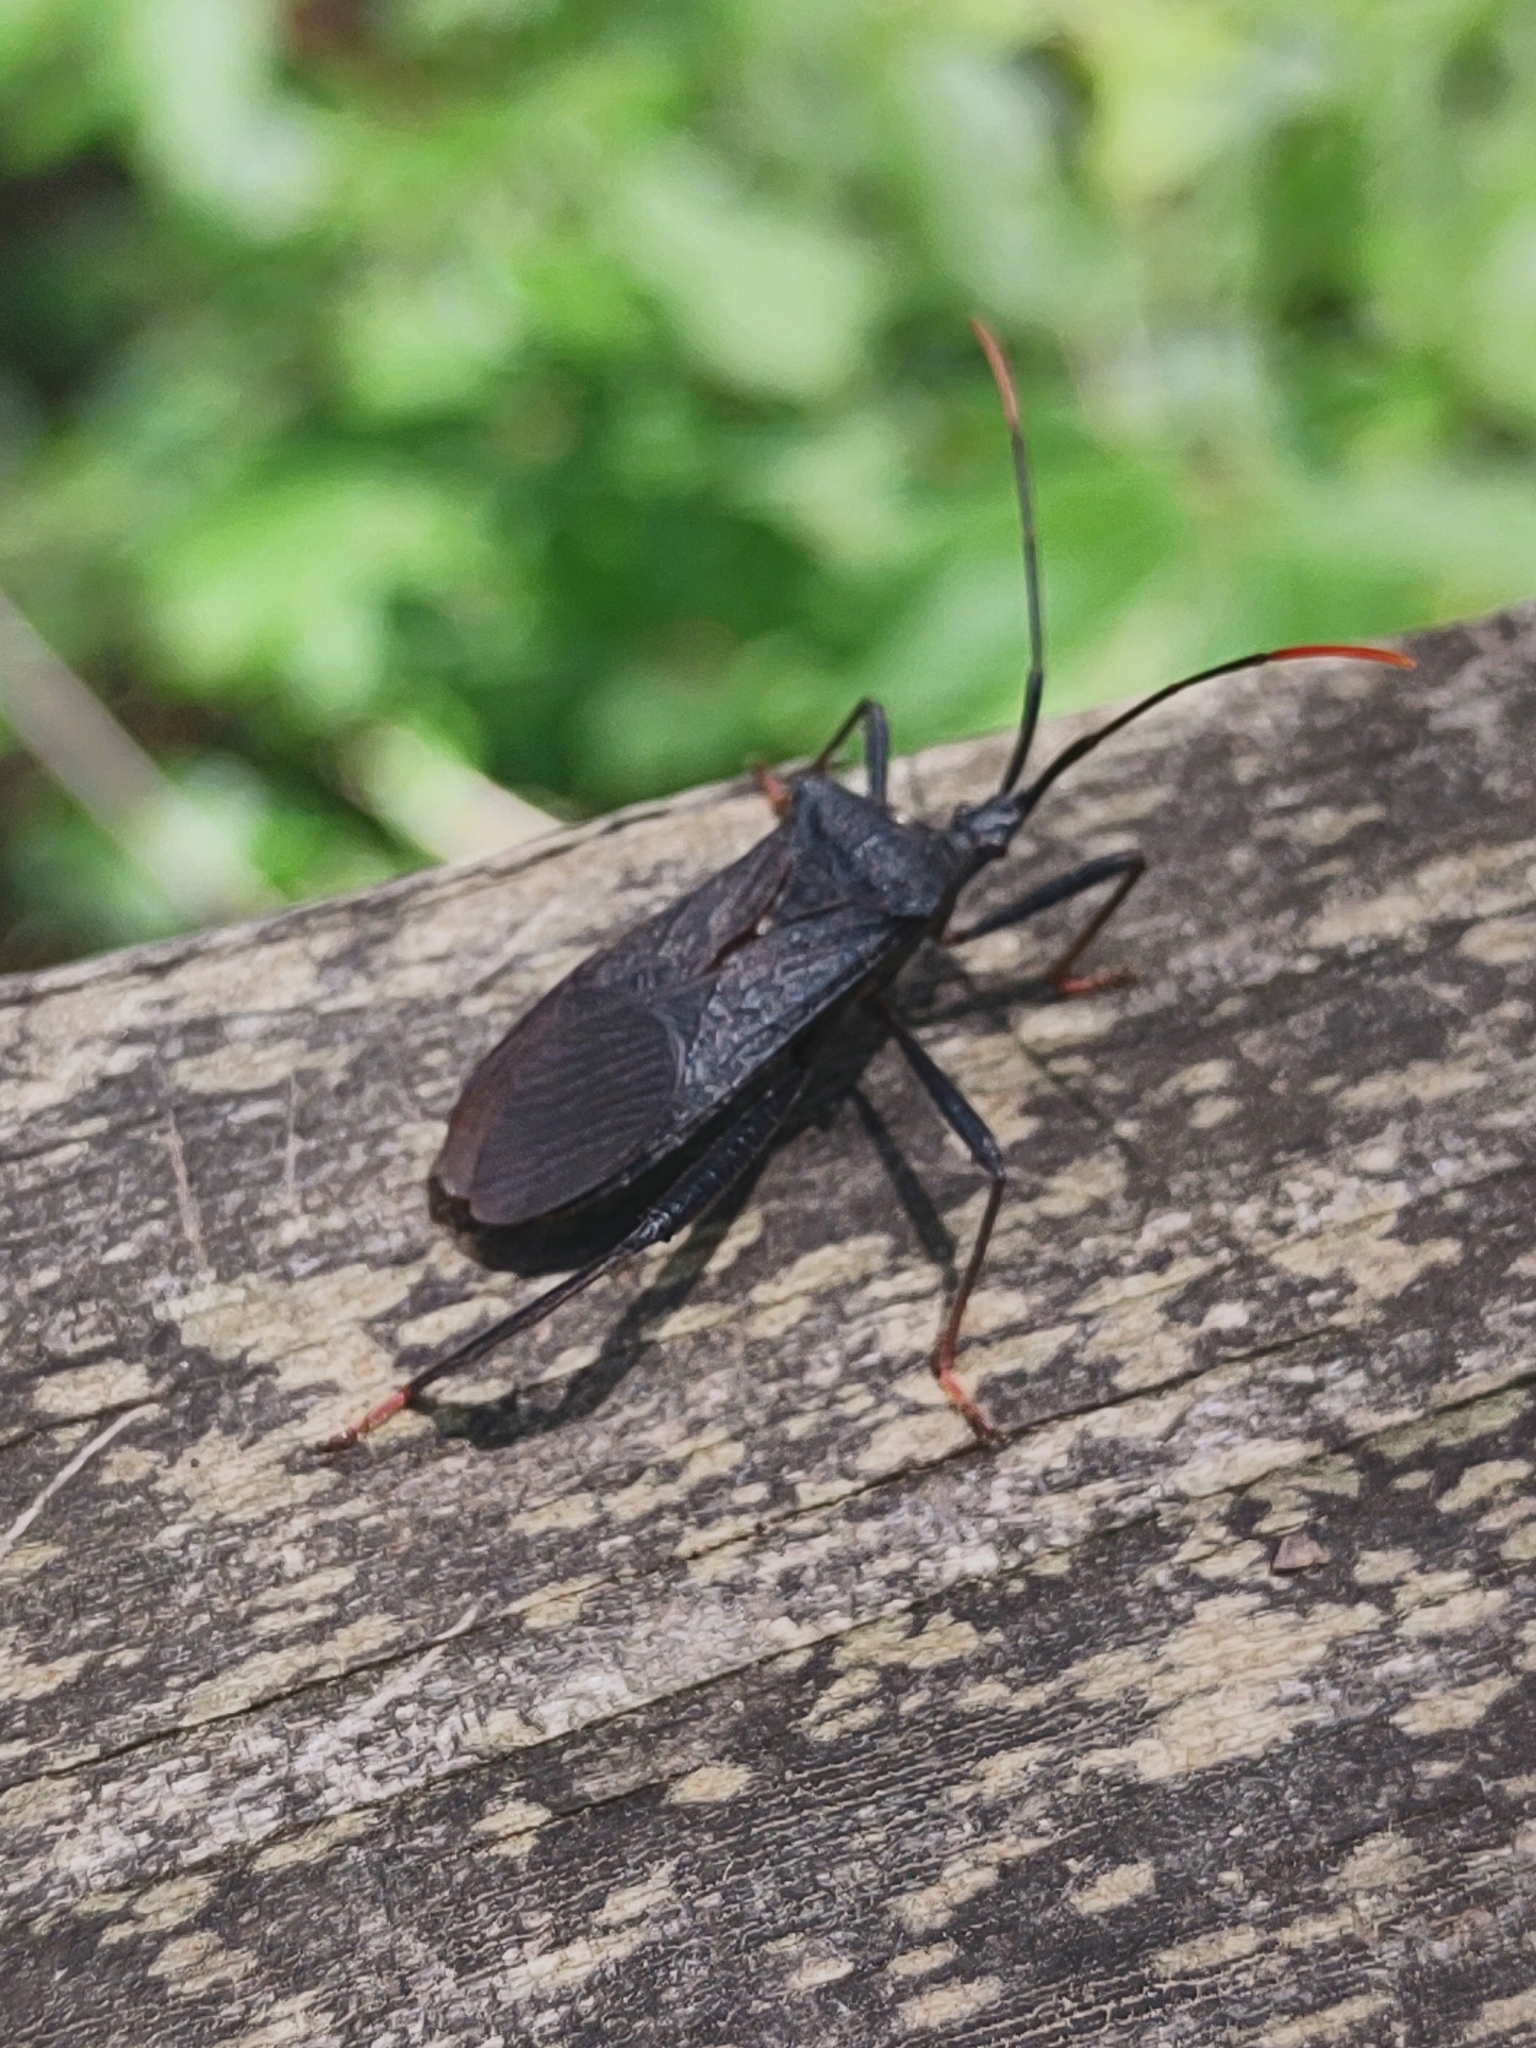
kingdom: Animalia
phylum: Arthropoda
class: Insecta
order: Hemiptera
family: Coreidae
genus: Acanthocephala
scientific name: Acanthocephala terminalis
